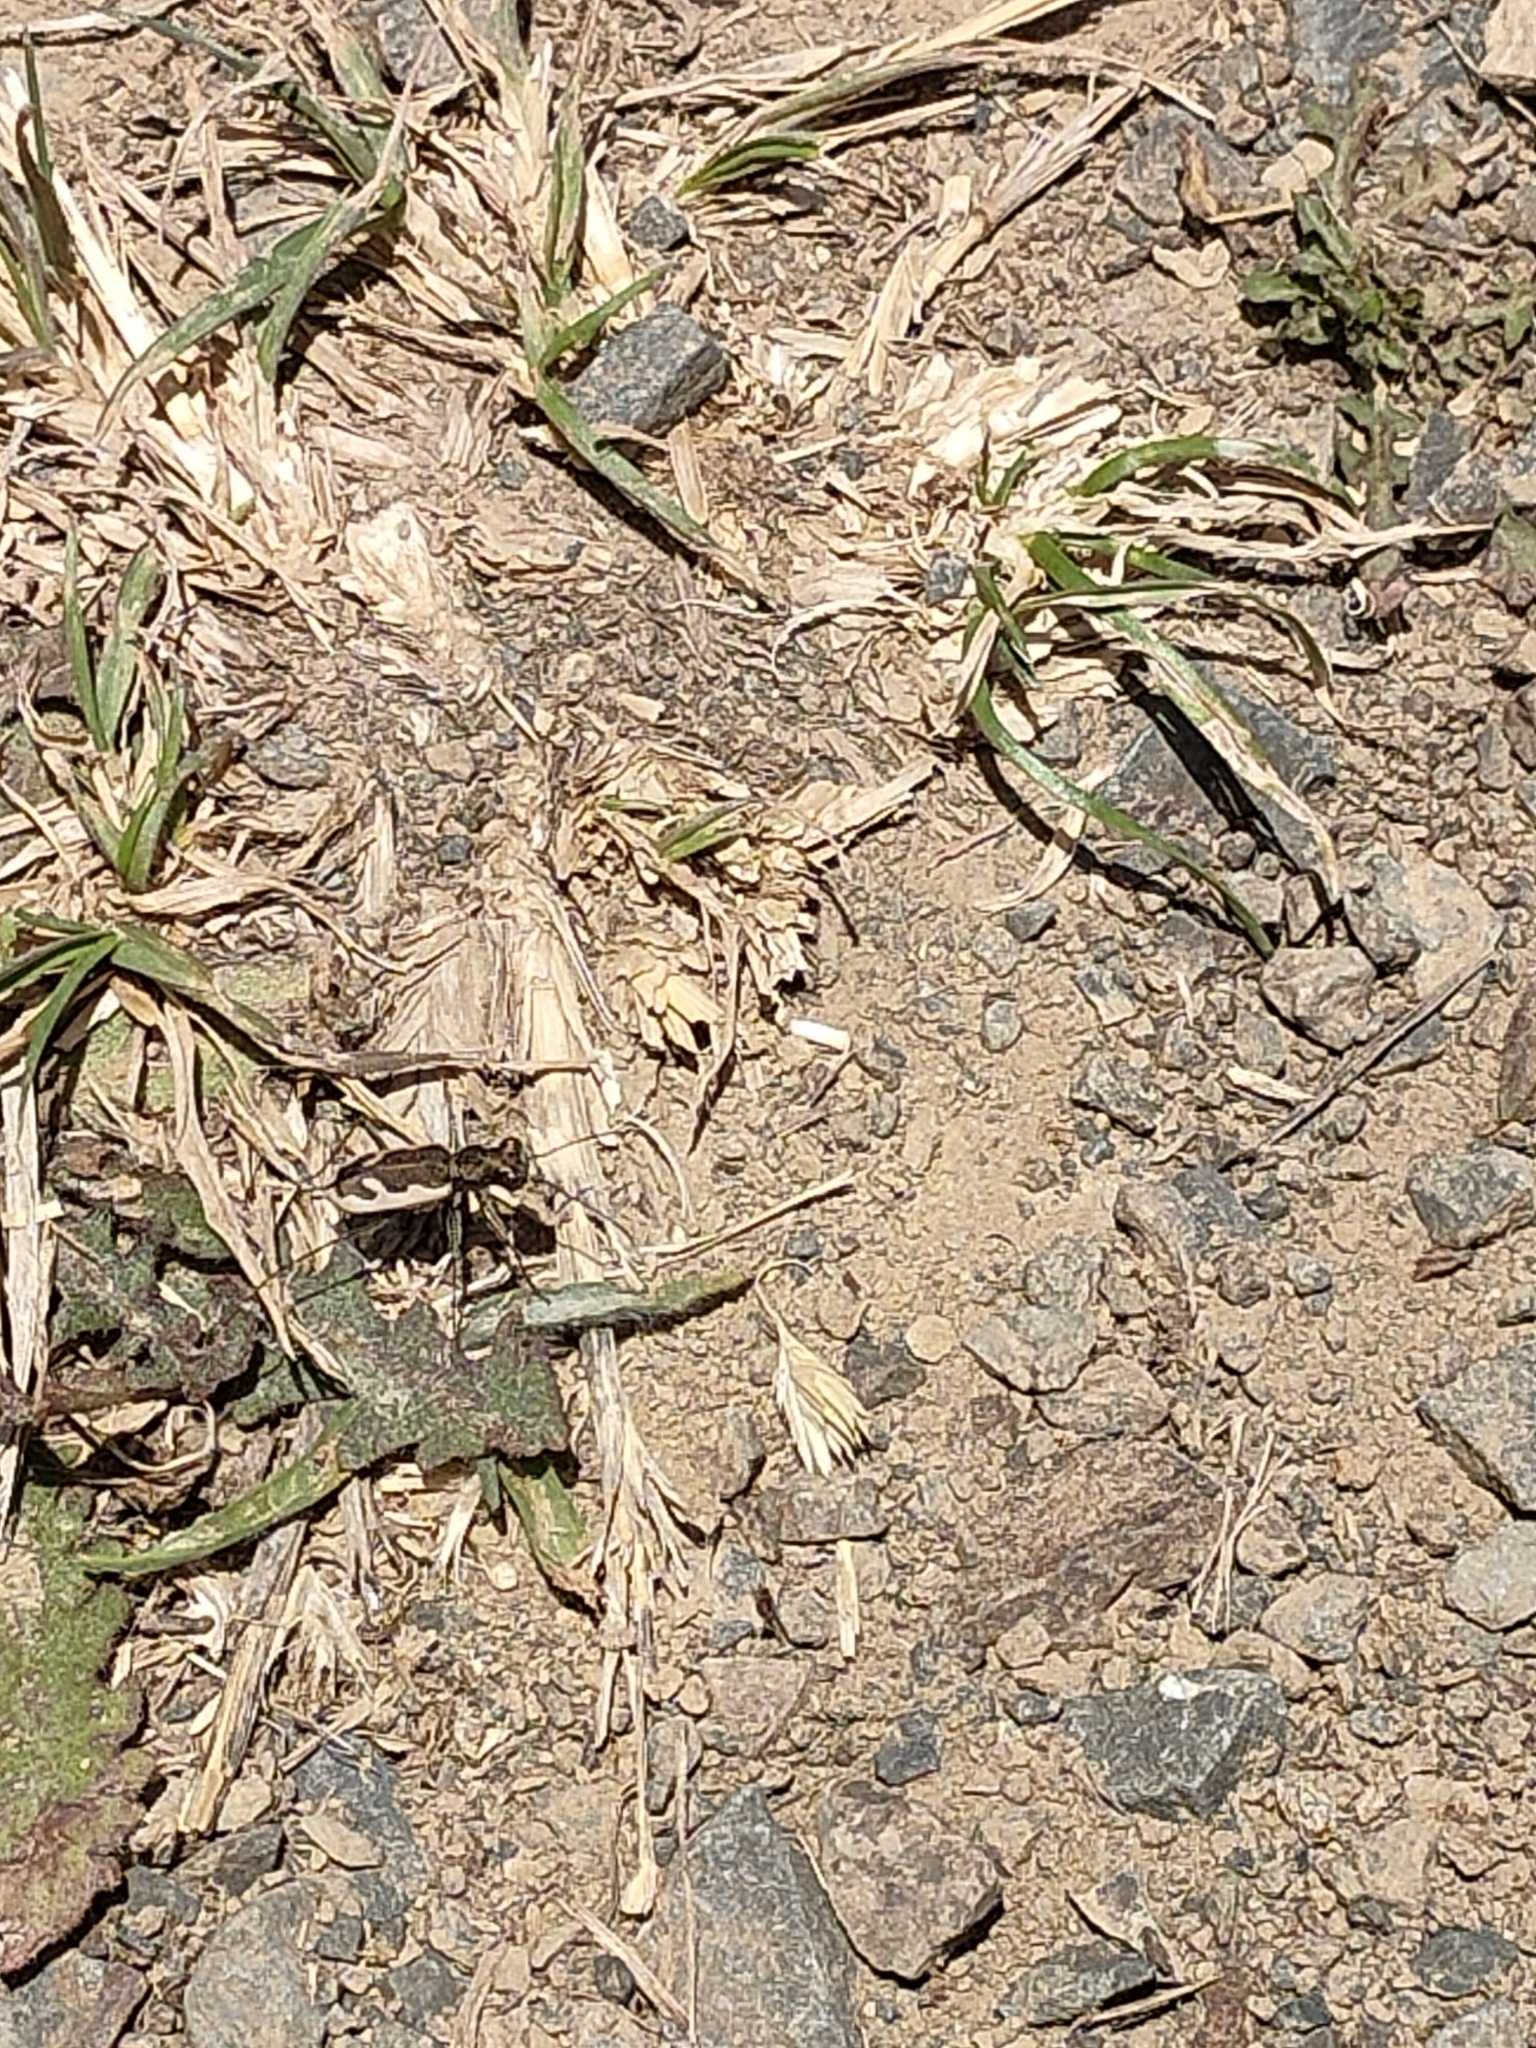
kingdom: Animalia
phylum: Arthropoda
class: Insecta
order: Coleoptera
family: Carabidae
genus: Neocicindela
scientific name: Neocicindela latecincta
